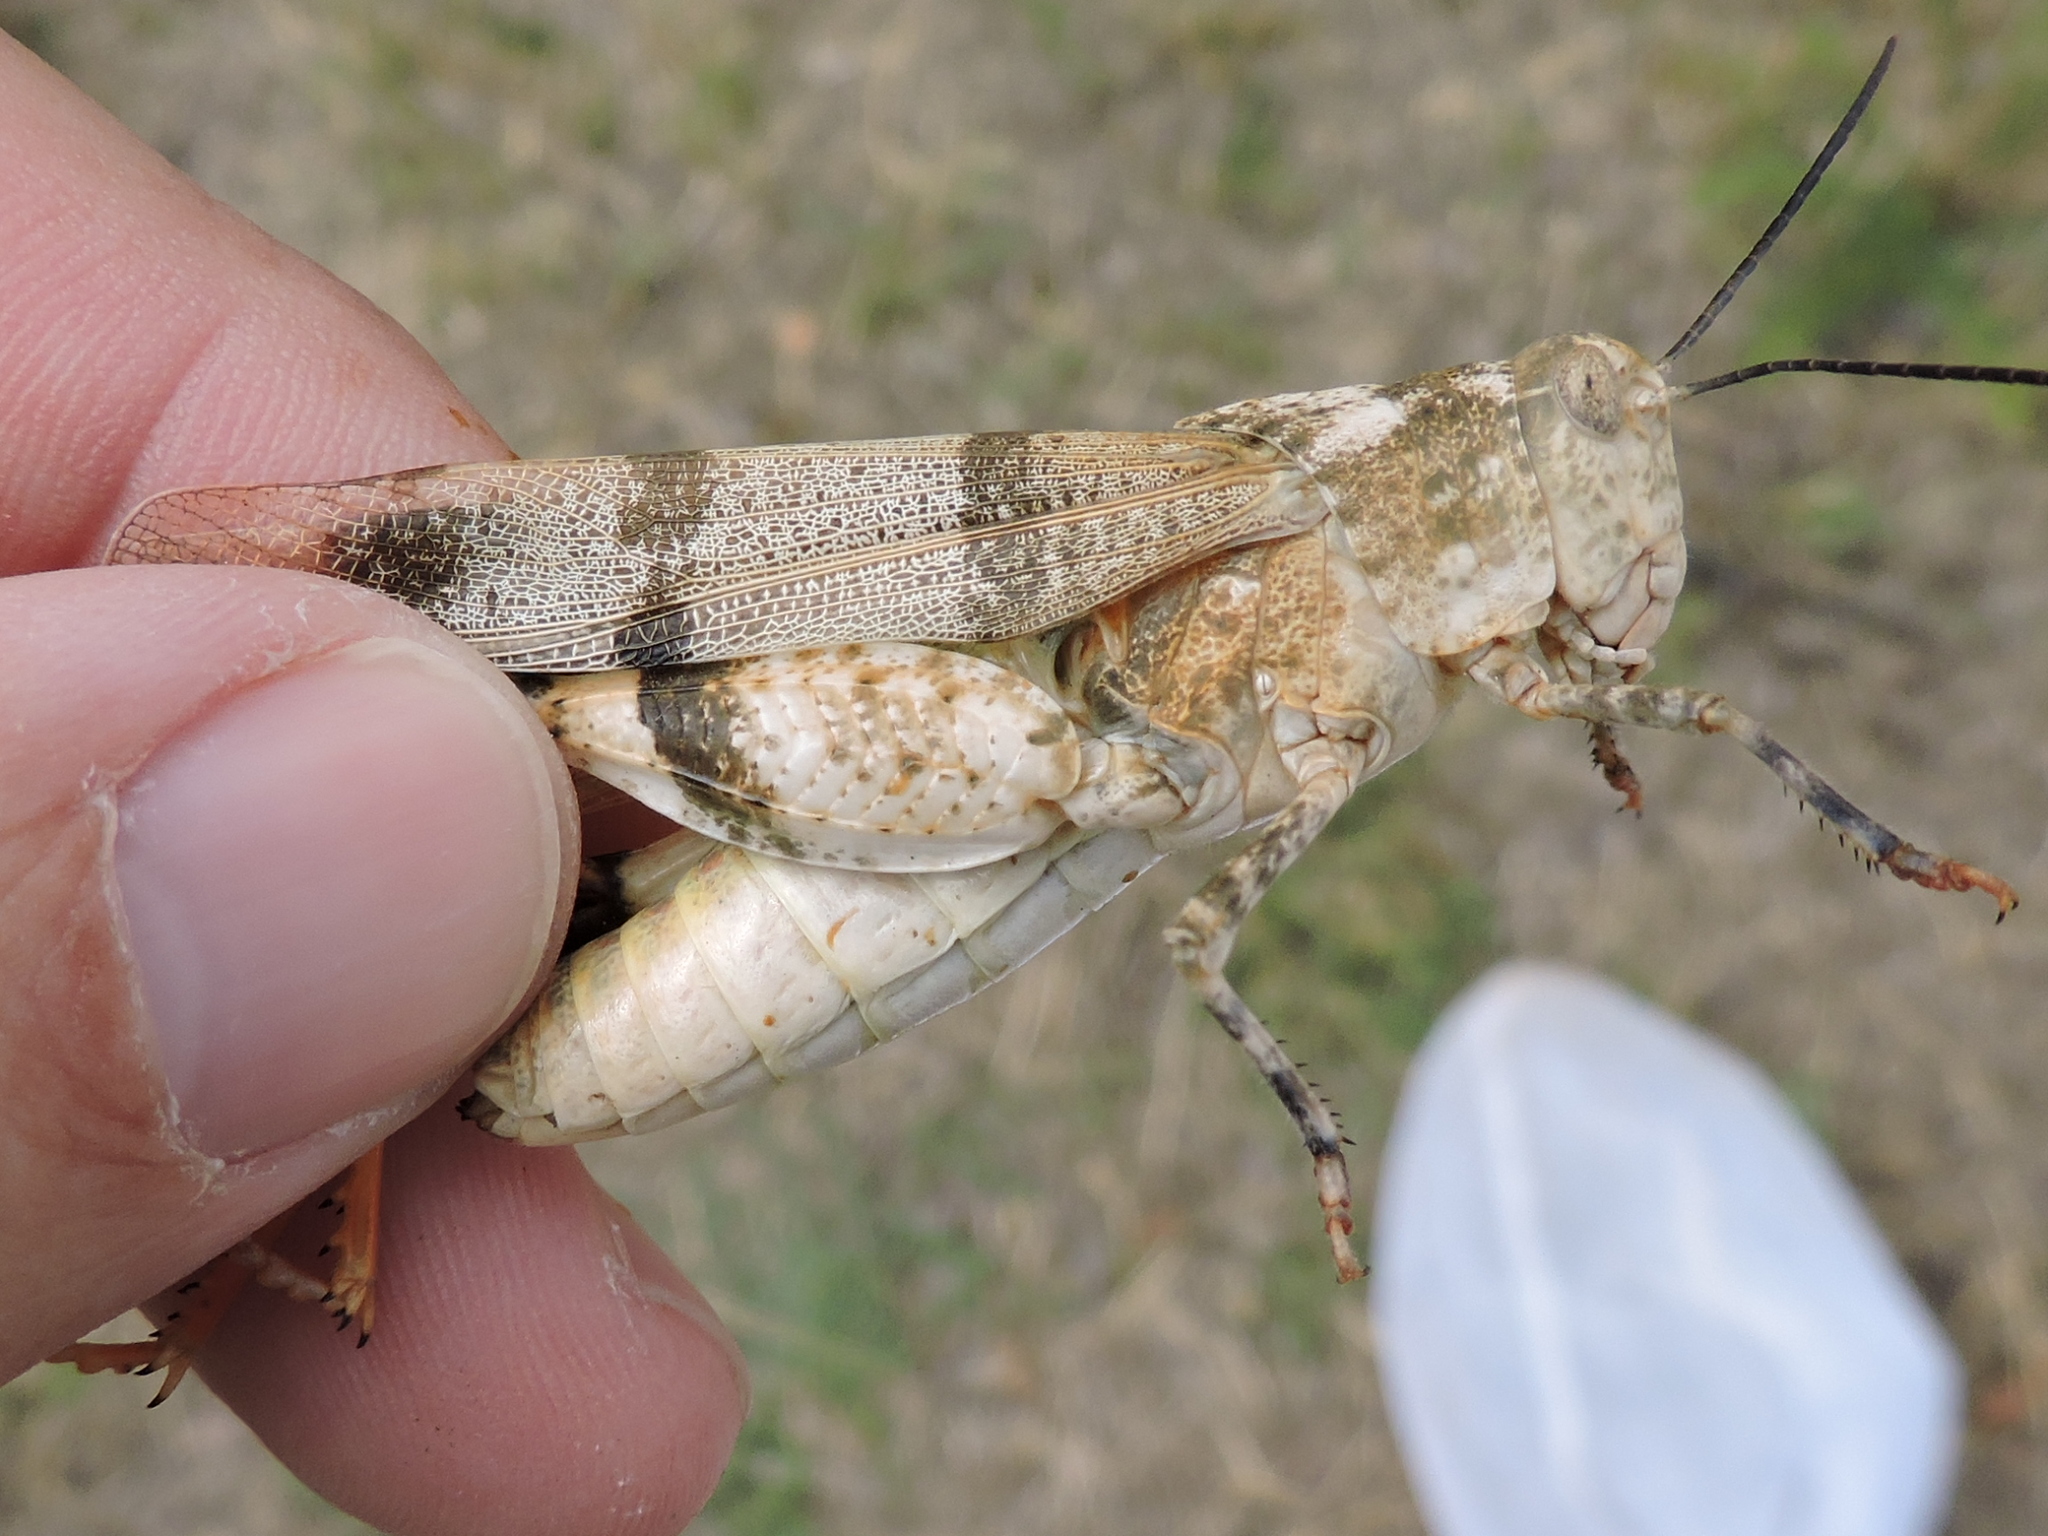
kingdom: Animalia
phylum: Arthropoda
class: Insecta
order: Orthoptera
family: Acrididae
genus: Hadrotettix
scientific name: Hadrotettix trifasciatus
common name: Threebanded grasshopper
